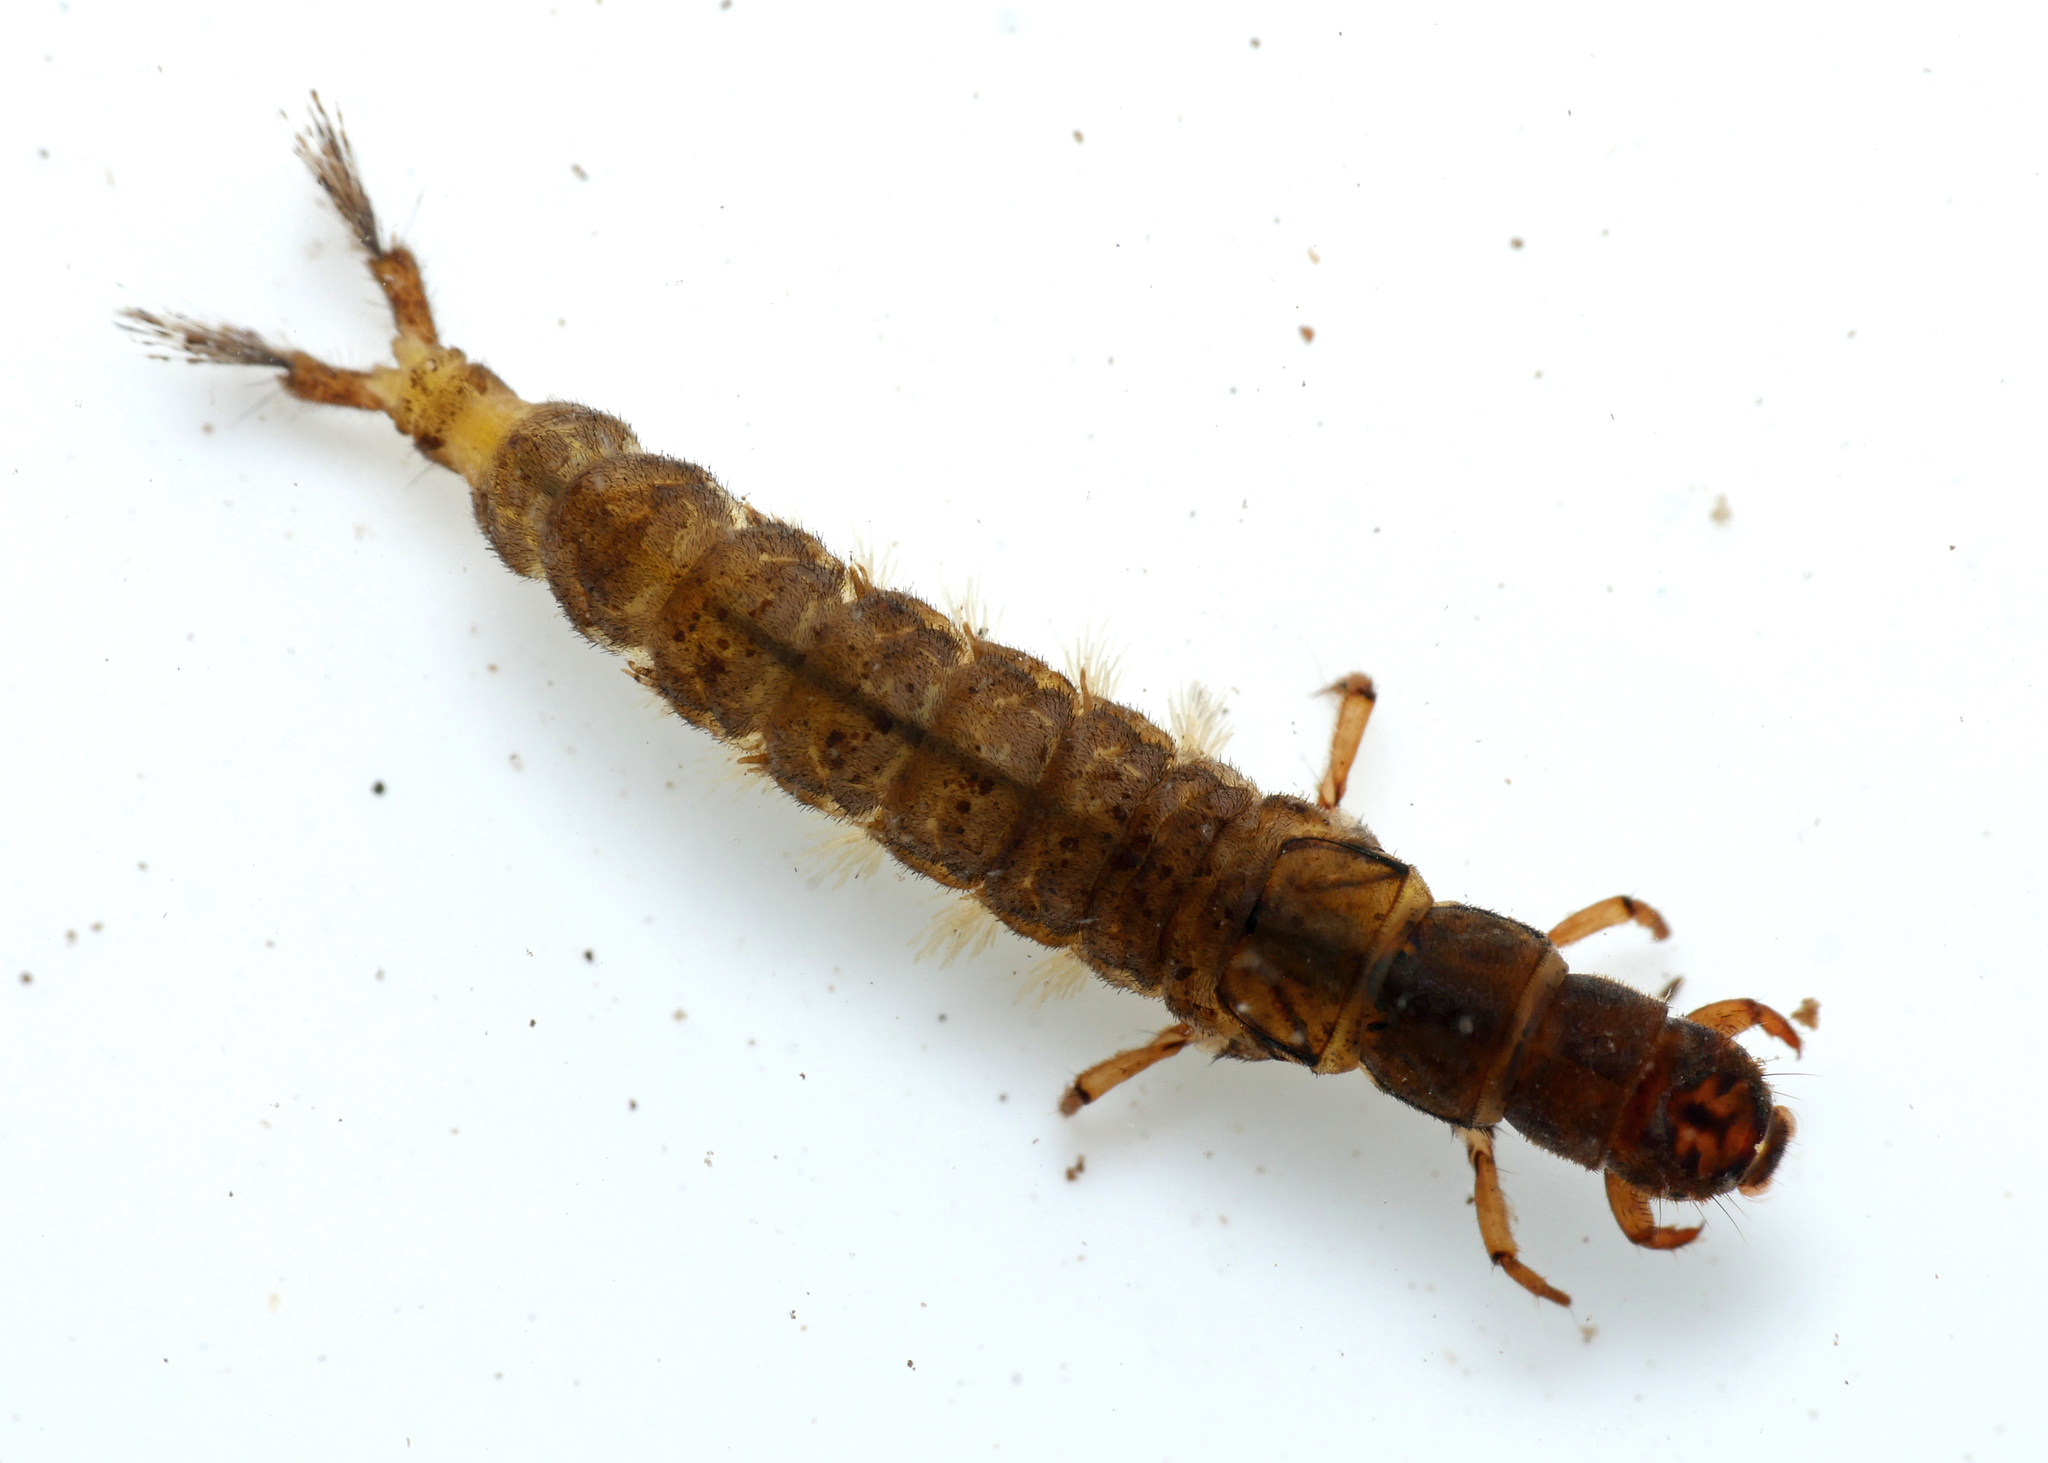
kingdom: Animalia
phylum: Arthropoda
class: Insecta
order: Trichoptera
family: Hydropsychidae
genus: Hydropsyche
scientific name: Hydropsyche fulvipes
